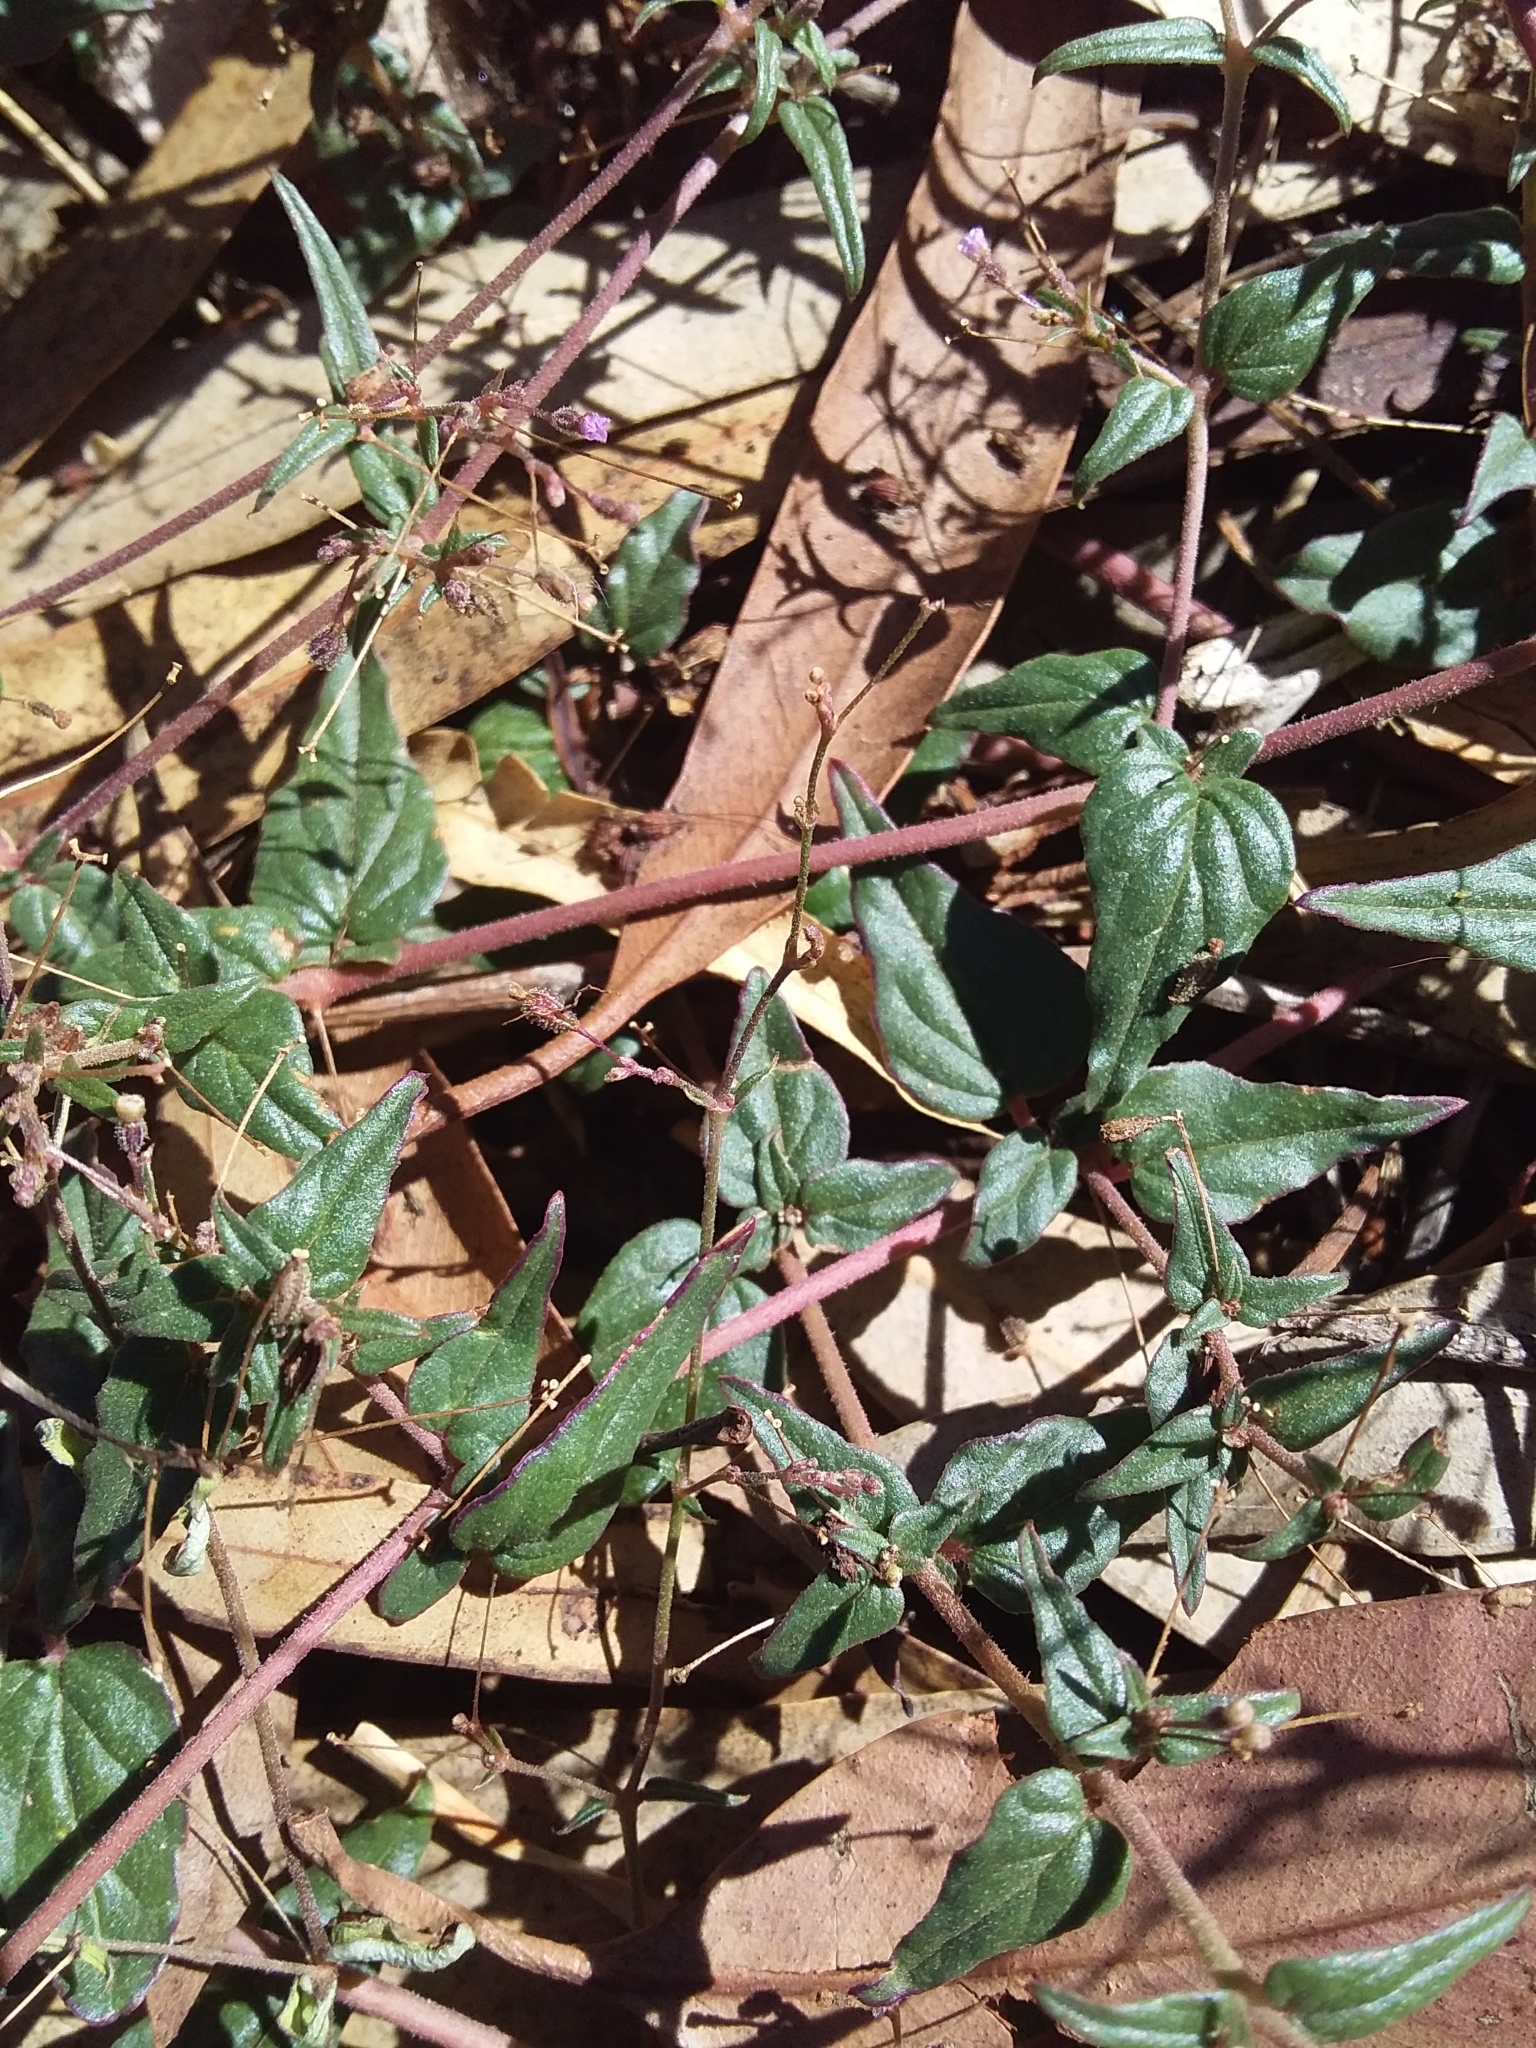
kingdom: Plantae
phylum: Tracheophyta
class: Magnoliopsida
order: Caryophyllales
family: Nyctaginaceae
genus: Boerhavia
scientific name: Boerhavia dominii
